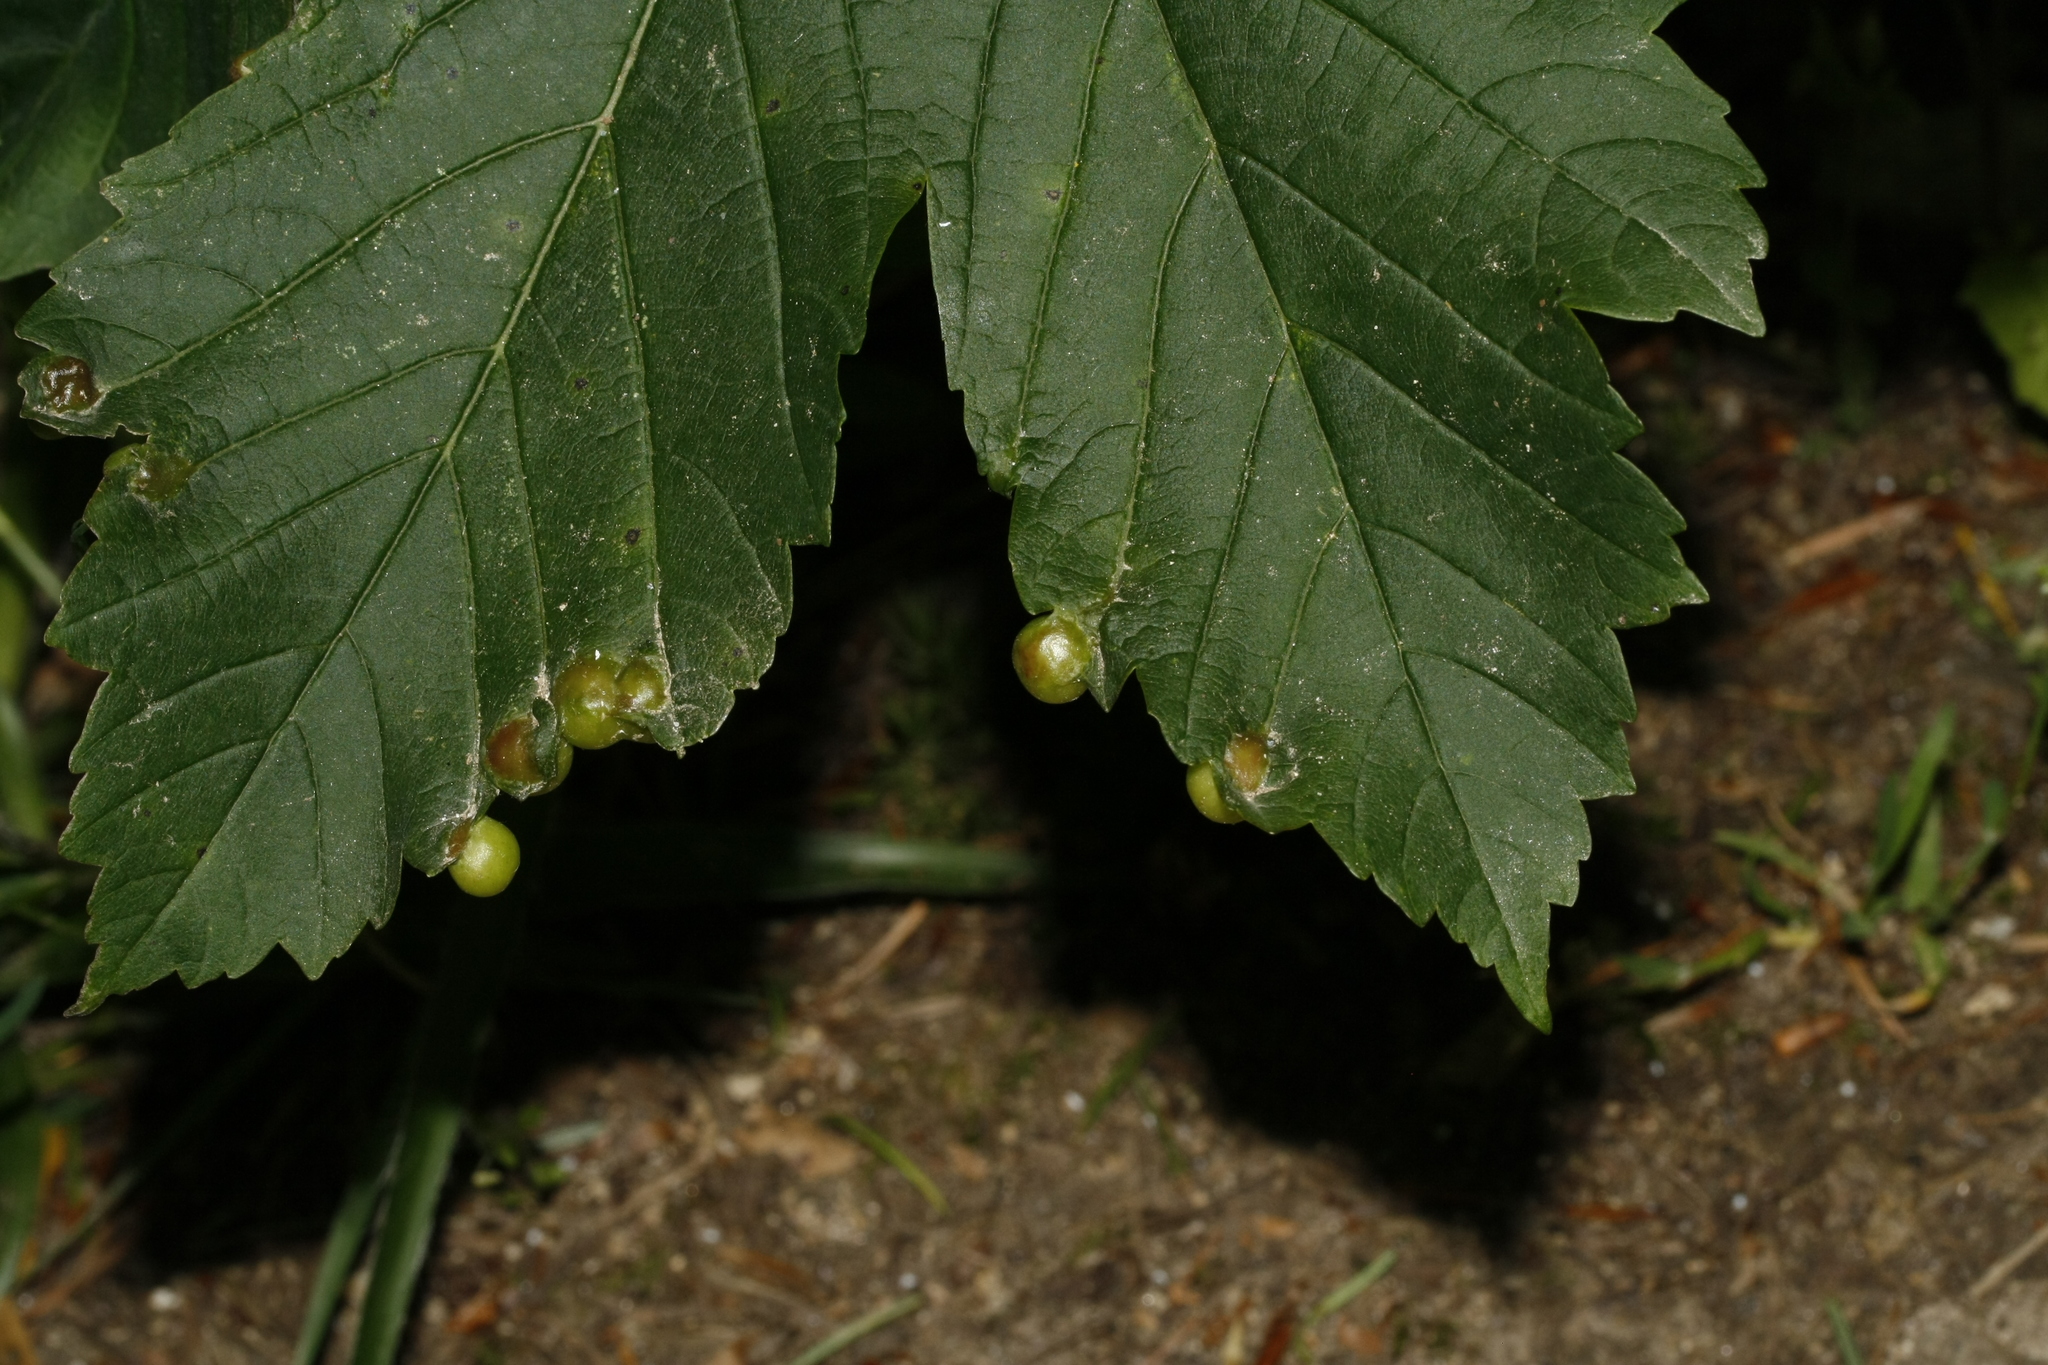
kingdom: Animalia
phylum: Arthropoda
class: Insecta
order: Hymenoptera
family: Cynipidae
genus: Pediaspis
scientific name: Pediaspis aceris
